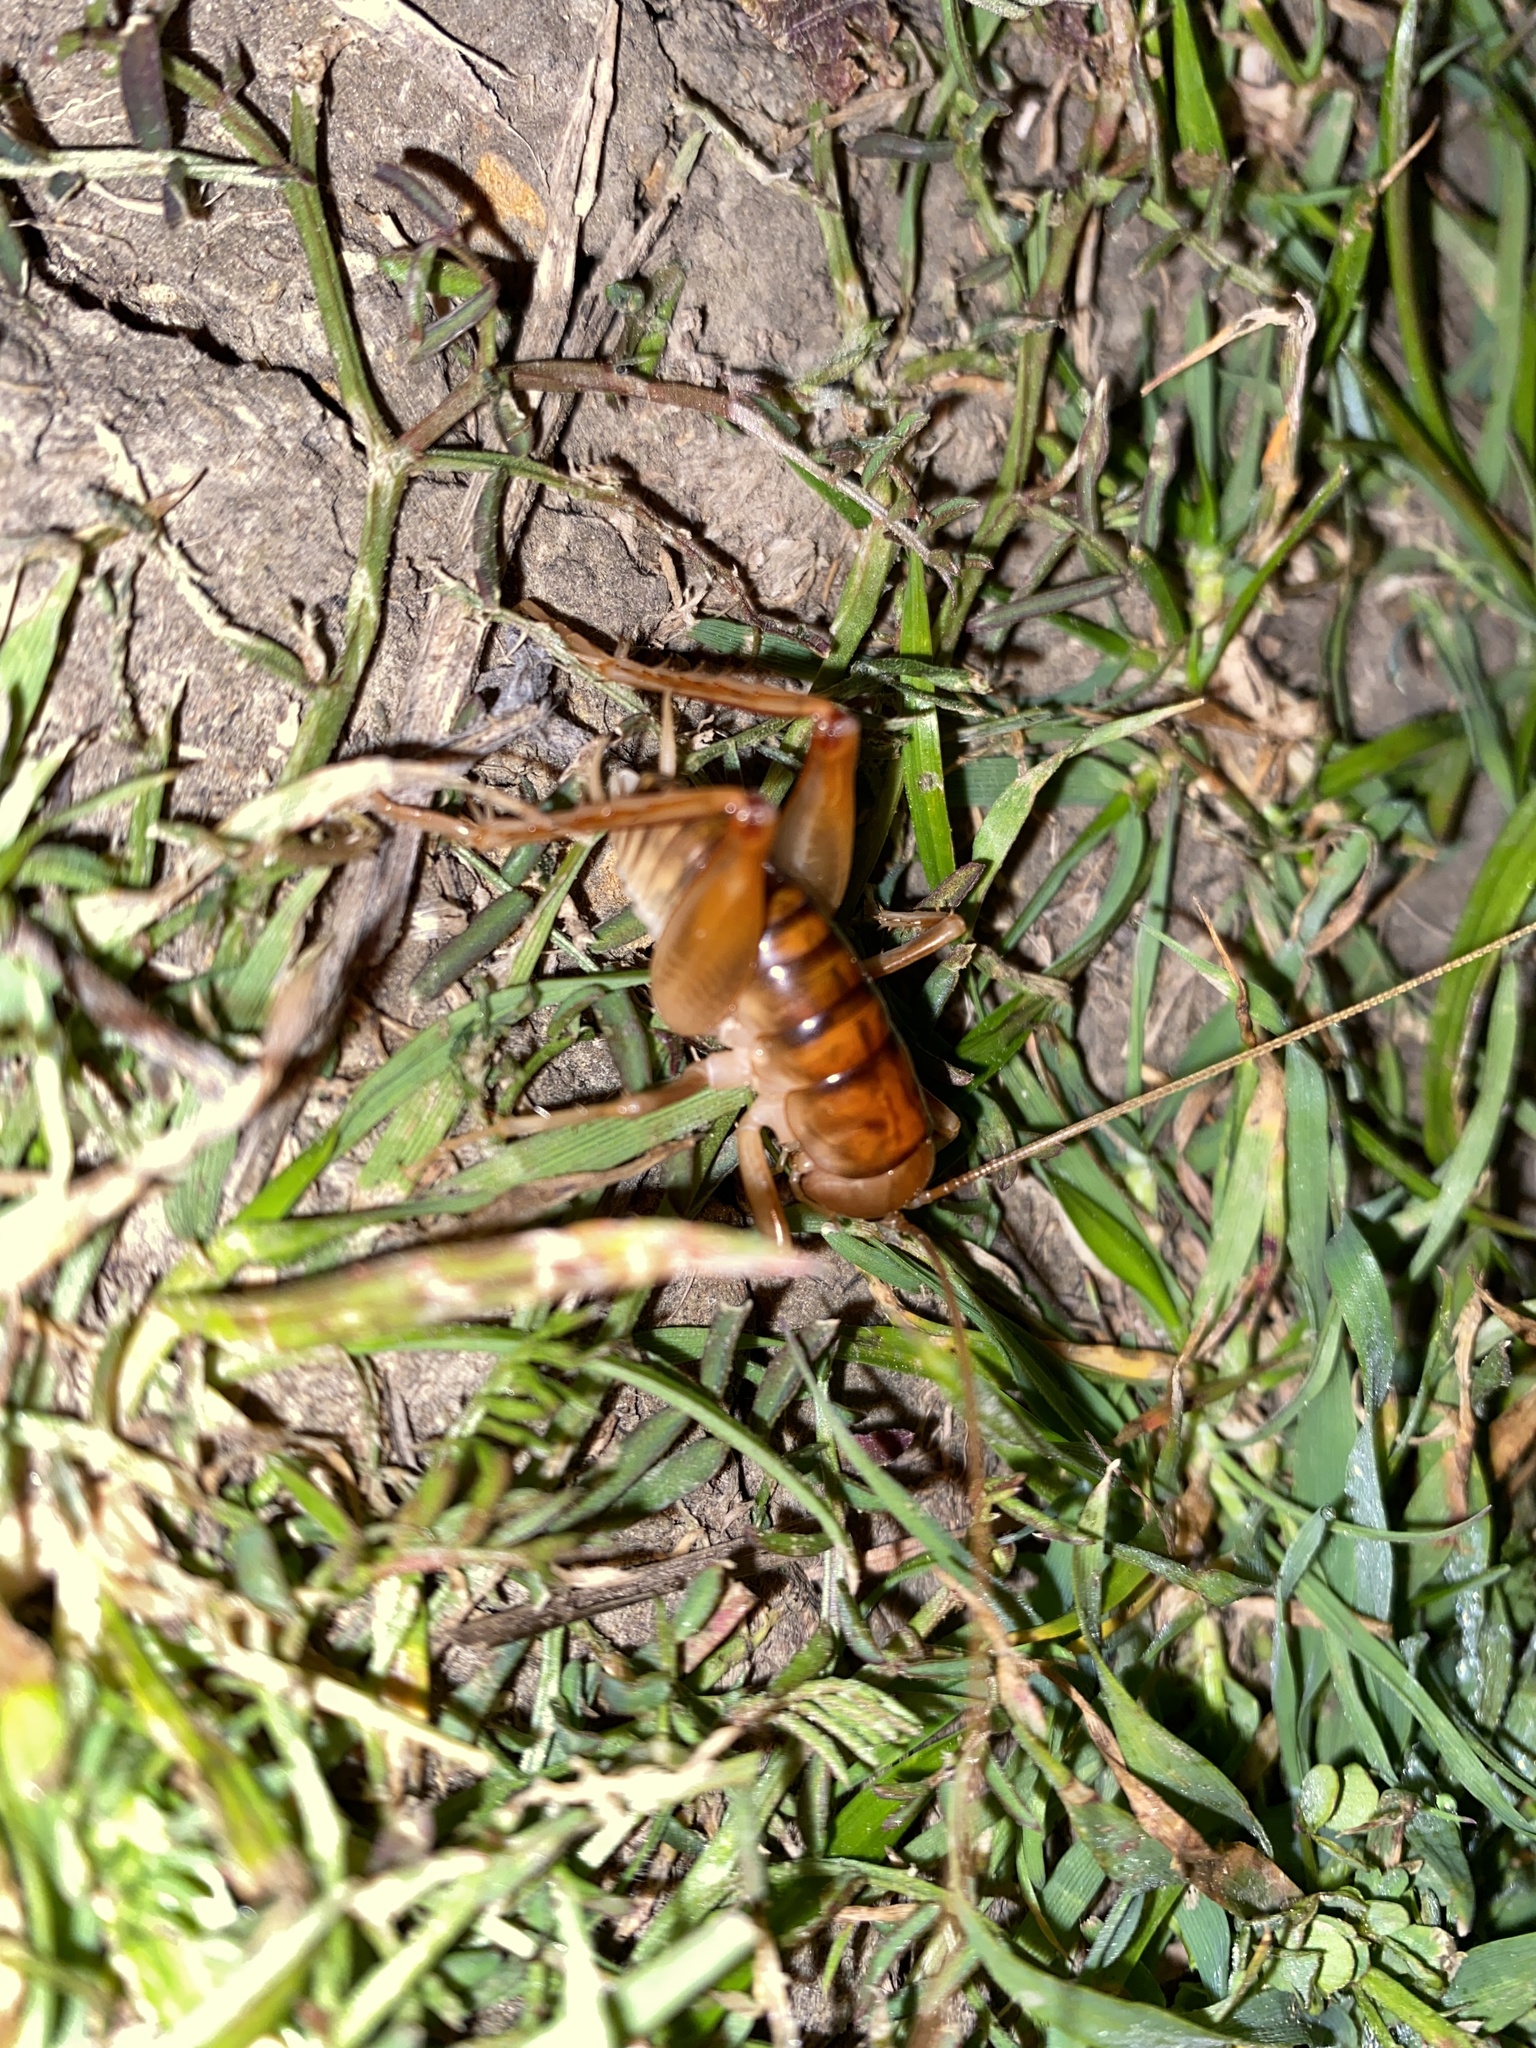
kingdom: Animalia
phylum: Arthropoda
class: Insecta
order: Orthoptera
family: Rhaphidophoridae
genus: Ceuthophilus
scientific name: Ceuthophilus californianus
